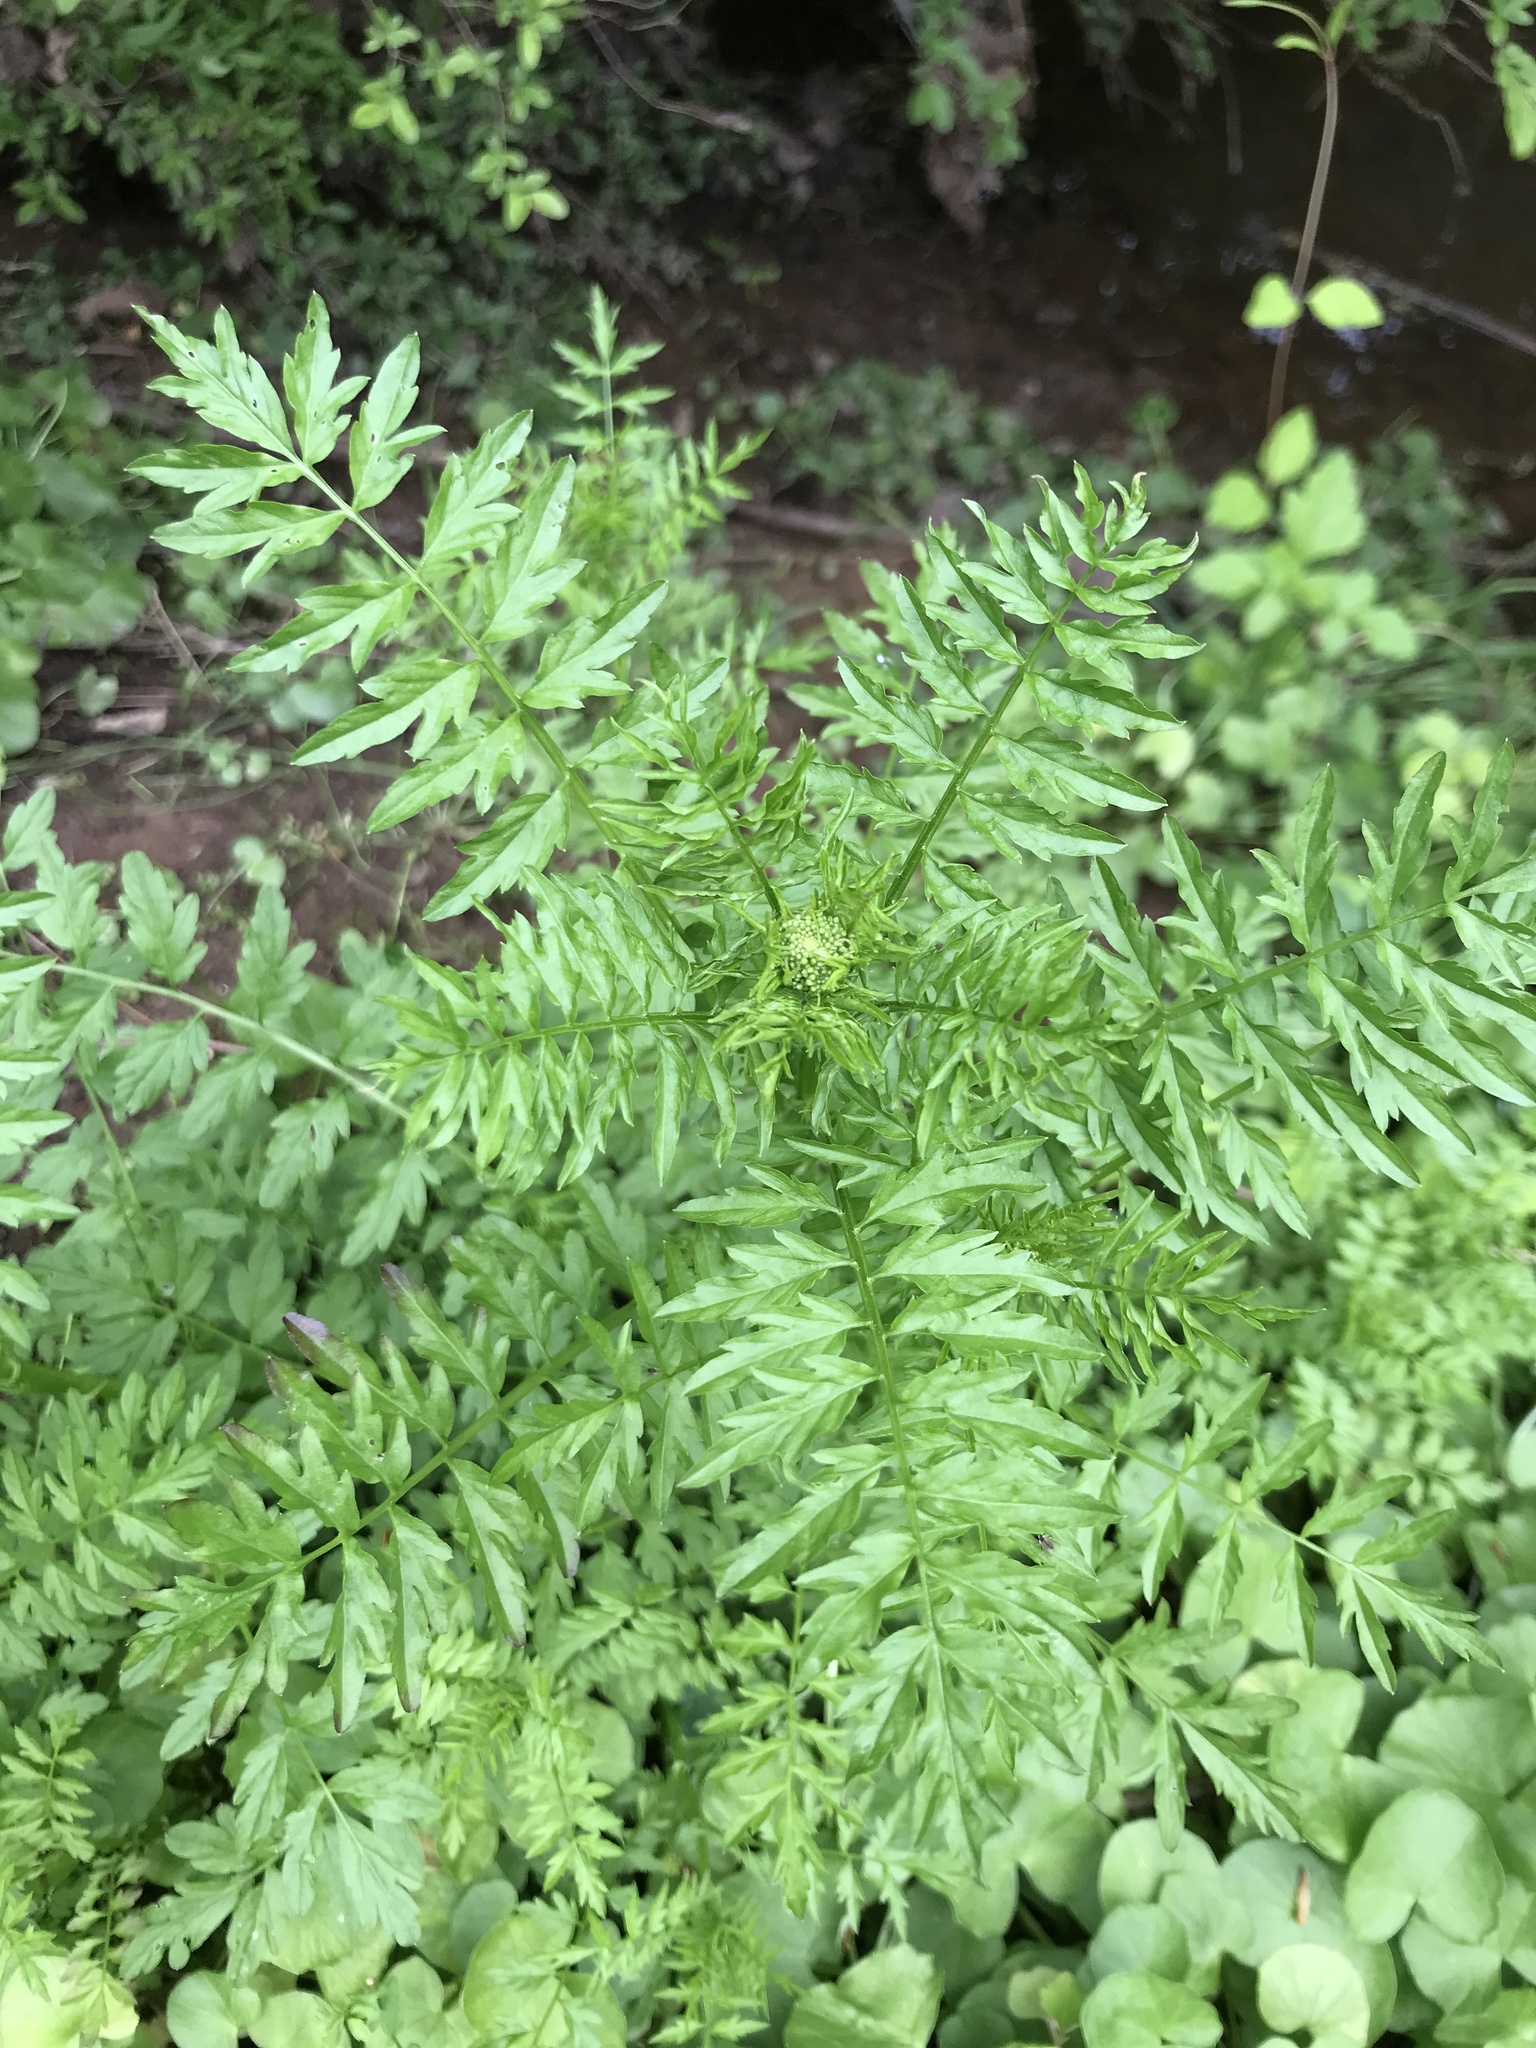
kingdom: Plantae
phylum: Tracheophyta
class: Magnoliopsida
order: Brassicales
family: Brassicaceae
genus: Cardamine
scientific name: Cardamine impatiens
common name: Narrow-leaved bitter-cress
